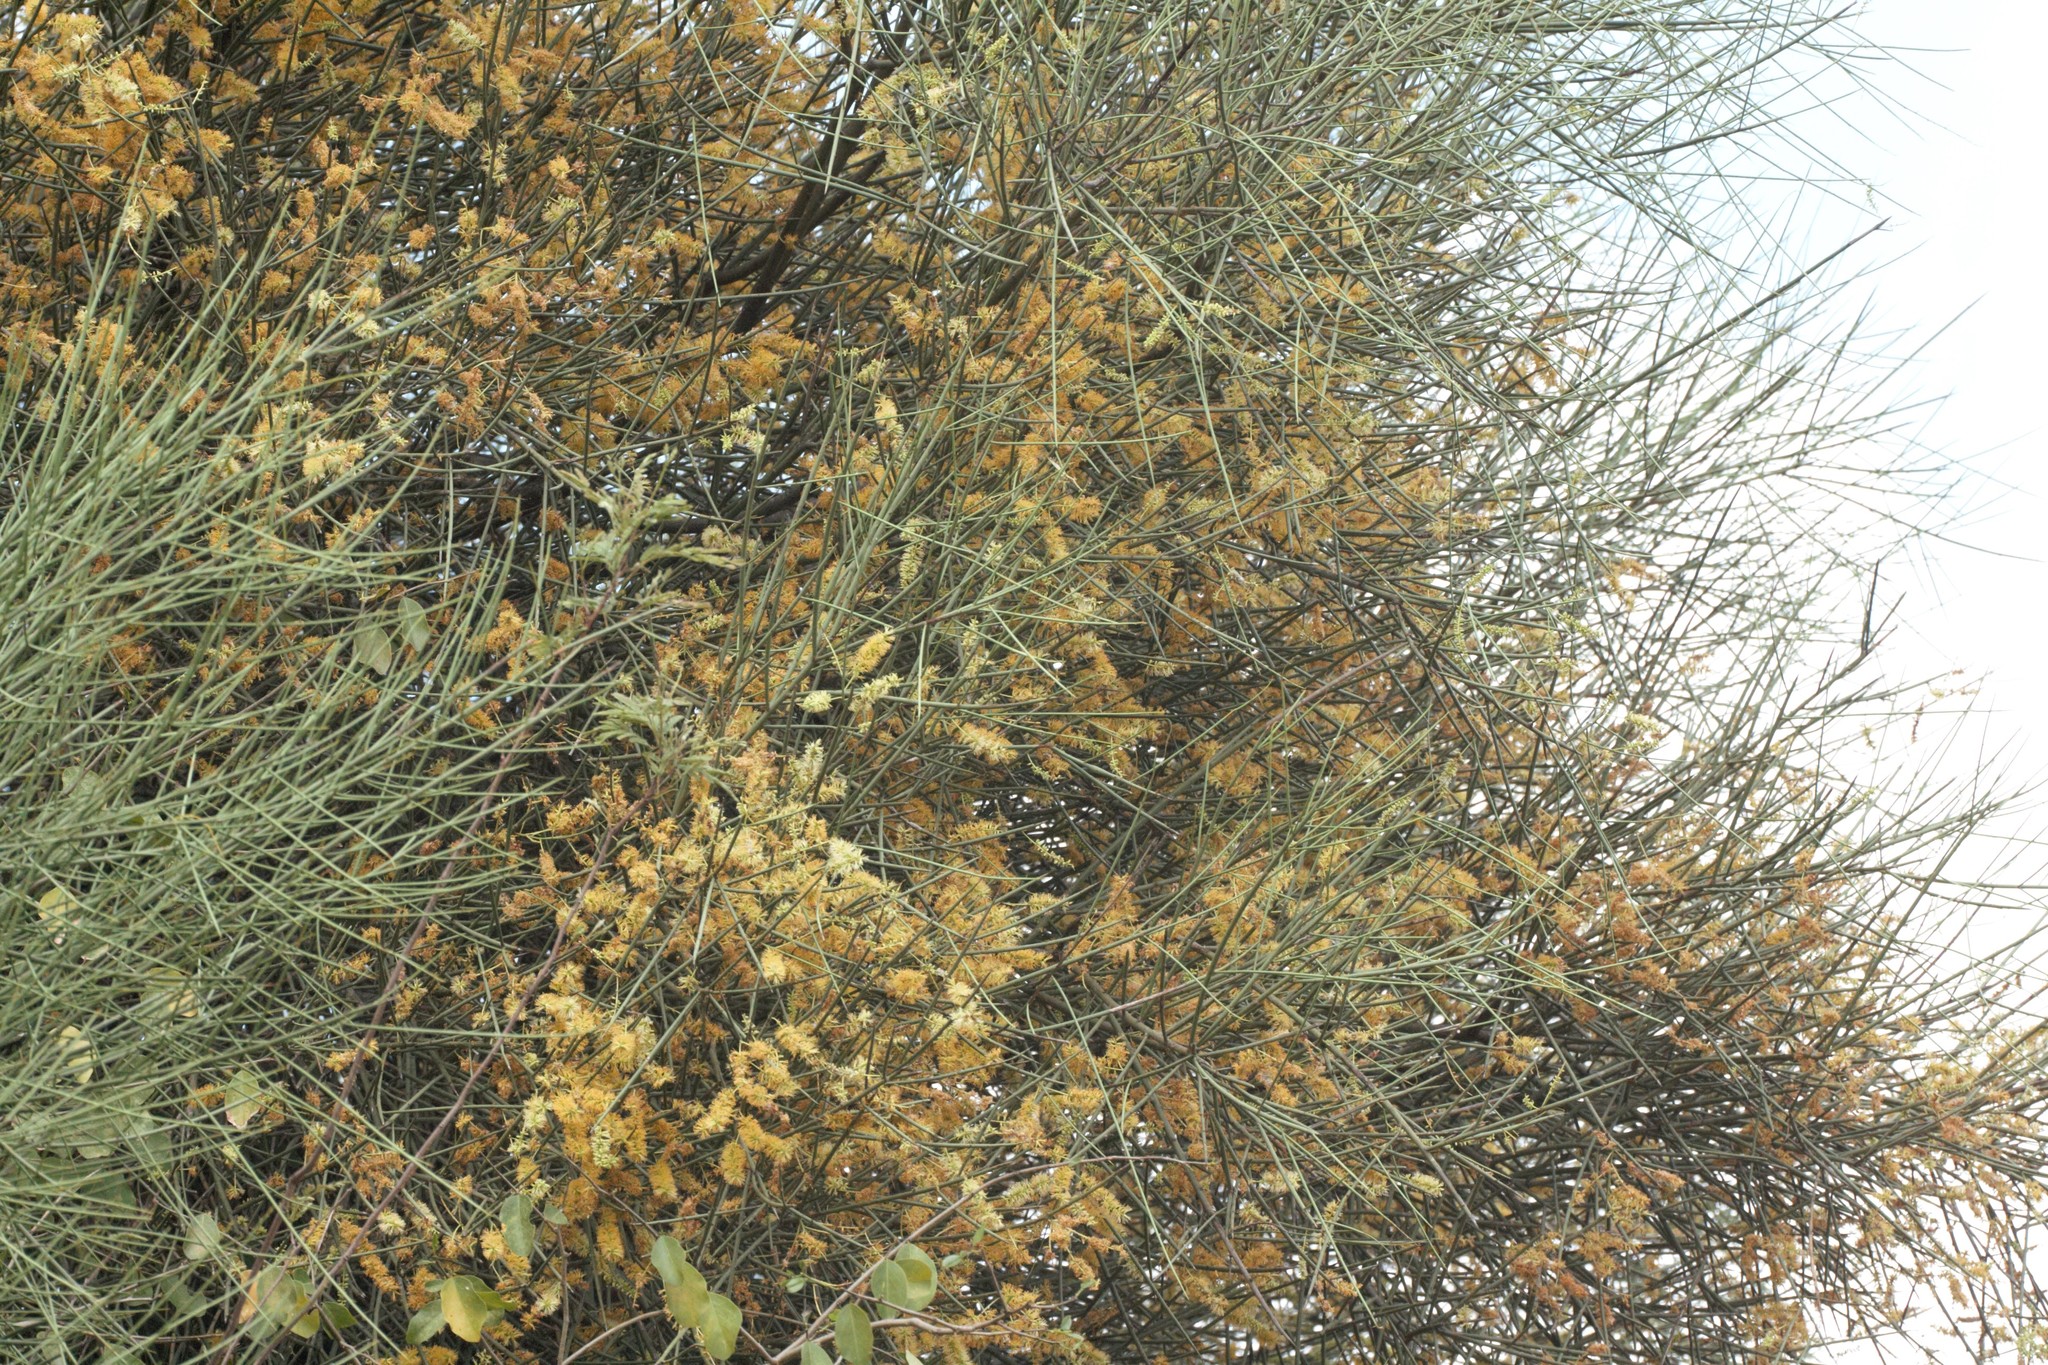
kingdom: Plantae
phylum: Tracheophyta
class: Magnoliopsida
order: Fabales
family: Fabaceae
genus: Prosopis
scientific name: Prosopis kuntzei
